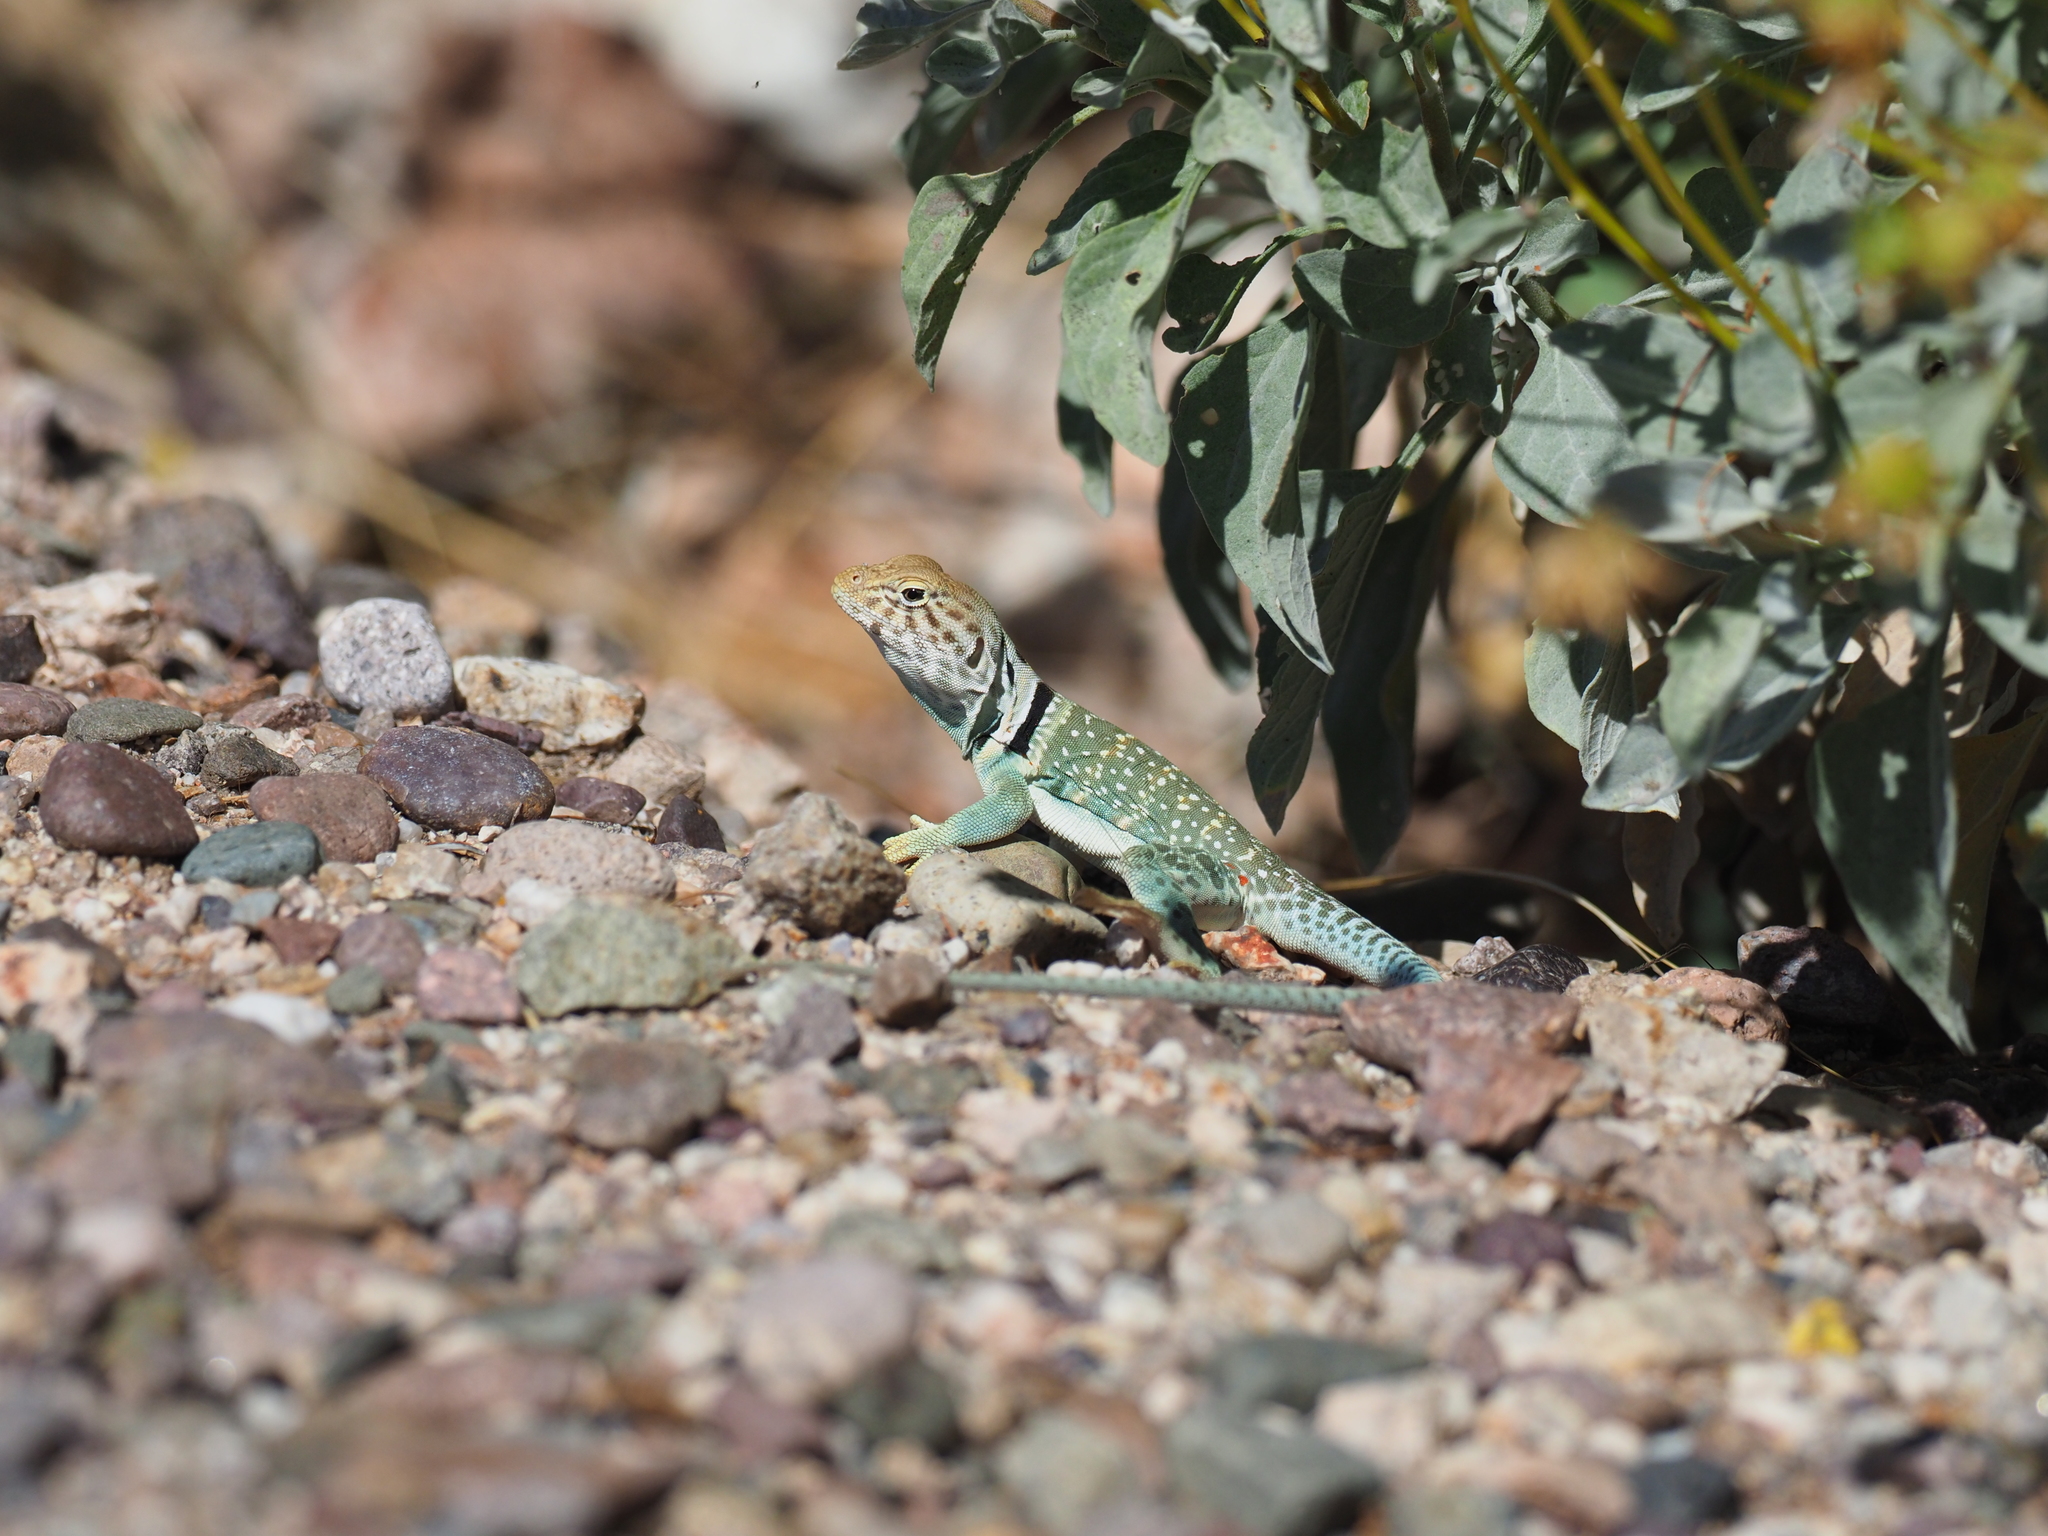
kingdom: Animalia
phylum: Chordata
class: Squamata
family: Crotaphytidae
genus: Crotaphytus
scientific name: Crotaphytus collaris
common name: Collared lizard
